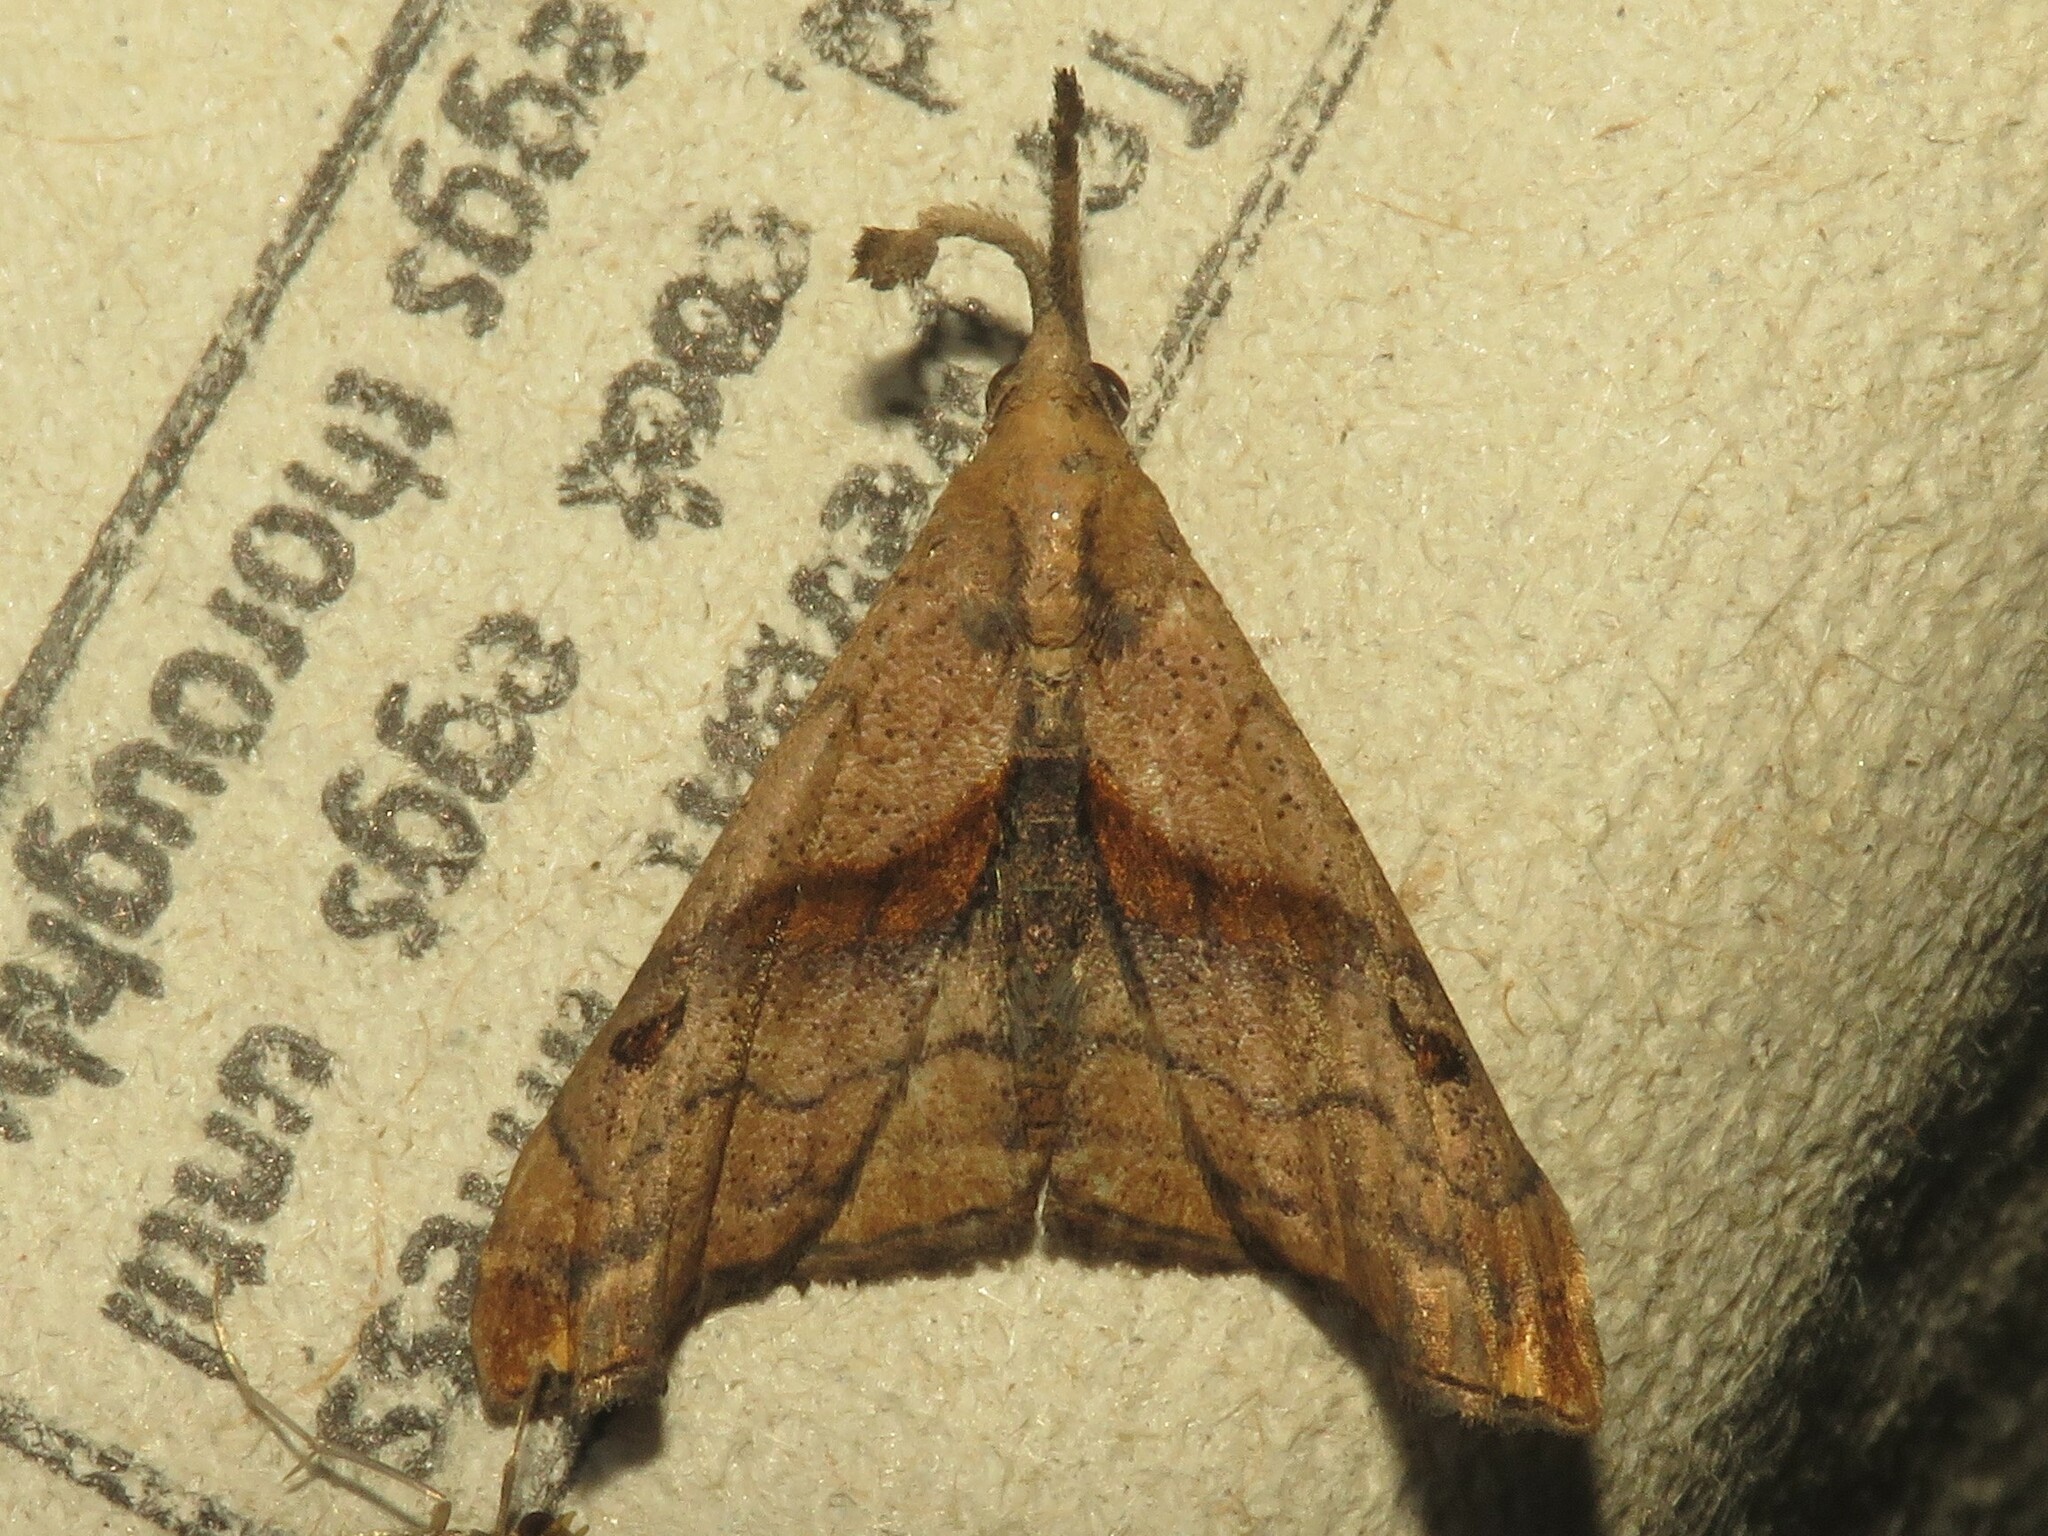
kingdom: Animalia
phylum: Arthropoda
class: Insecta
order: Lepidoptera
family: Erebidae
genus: Palthis
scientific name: Palthis angulalis
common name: Dark-spotted palthis moth
